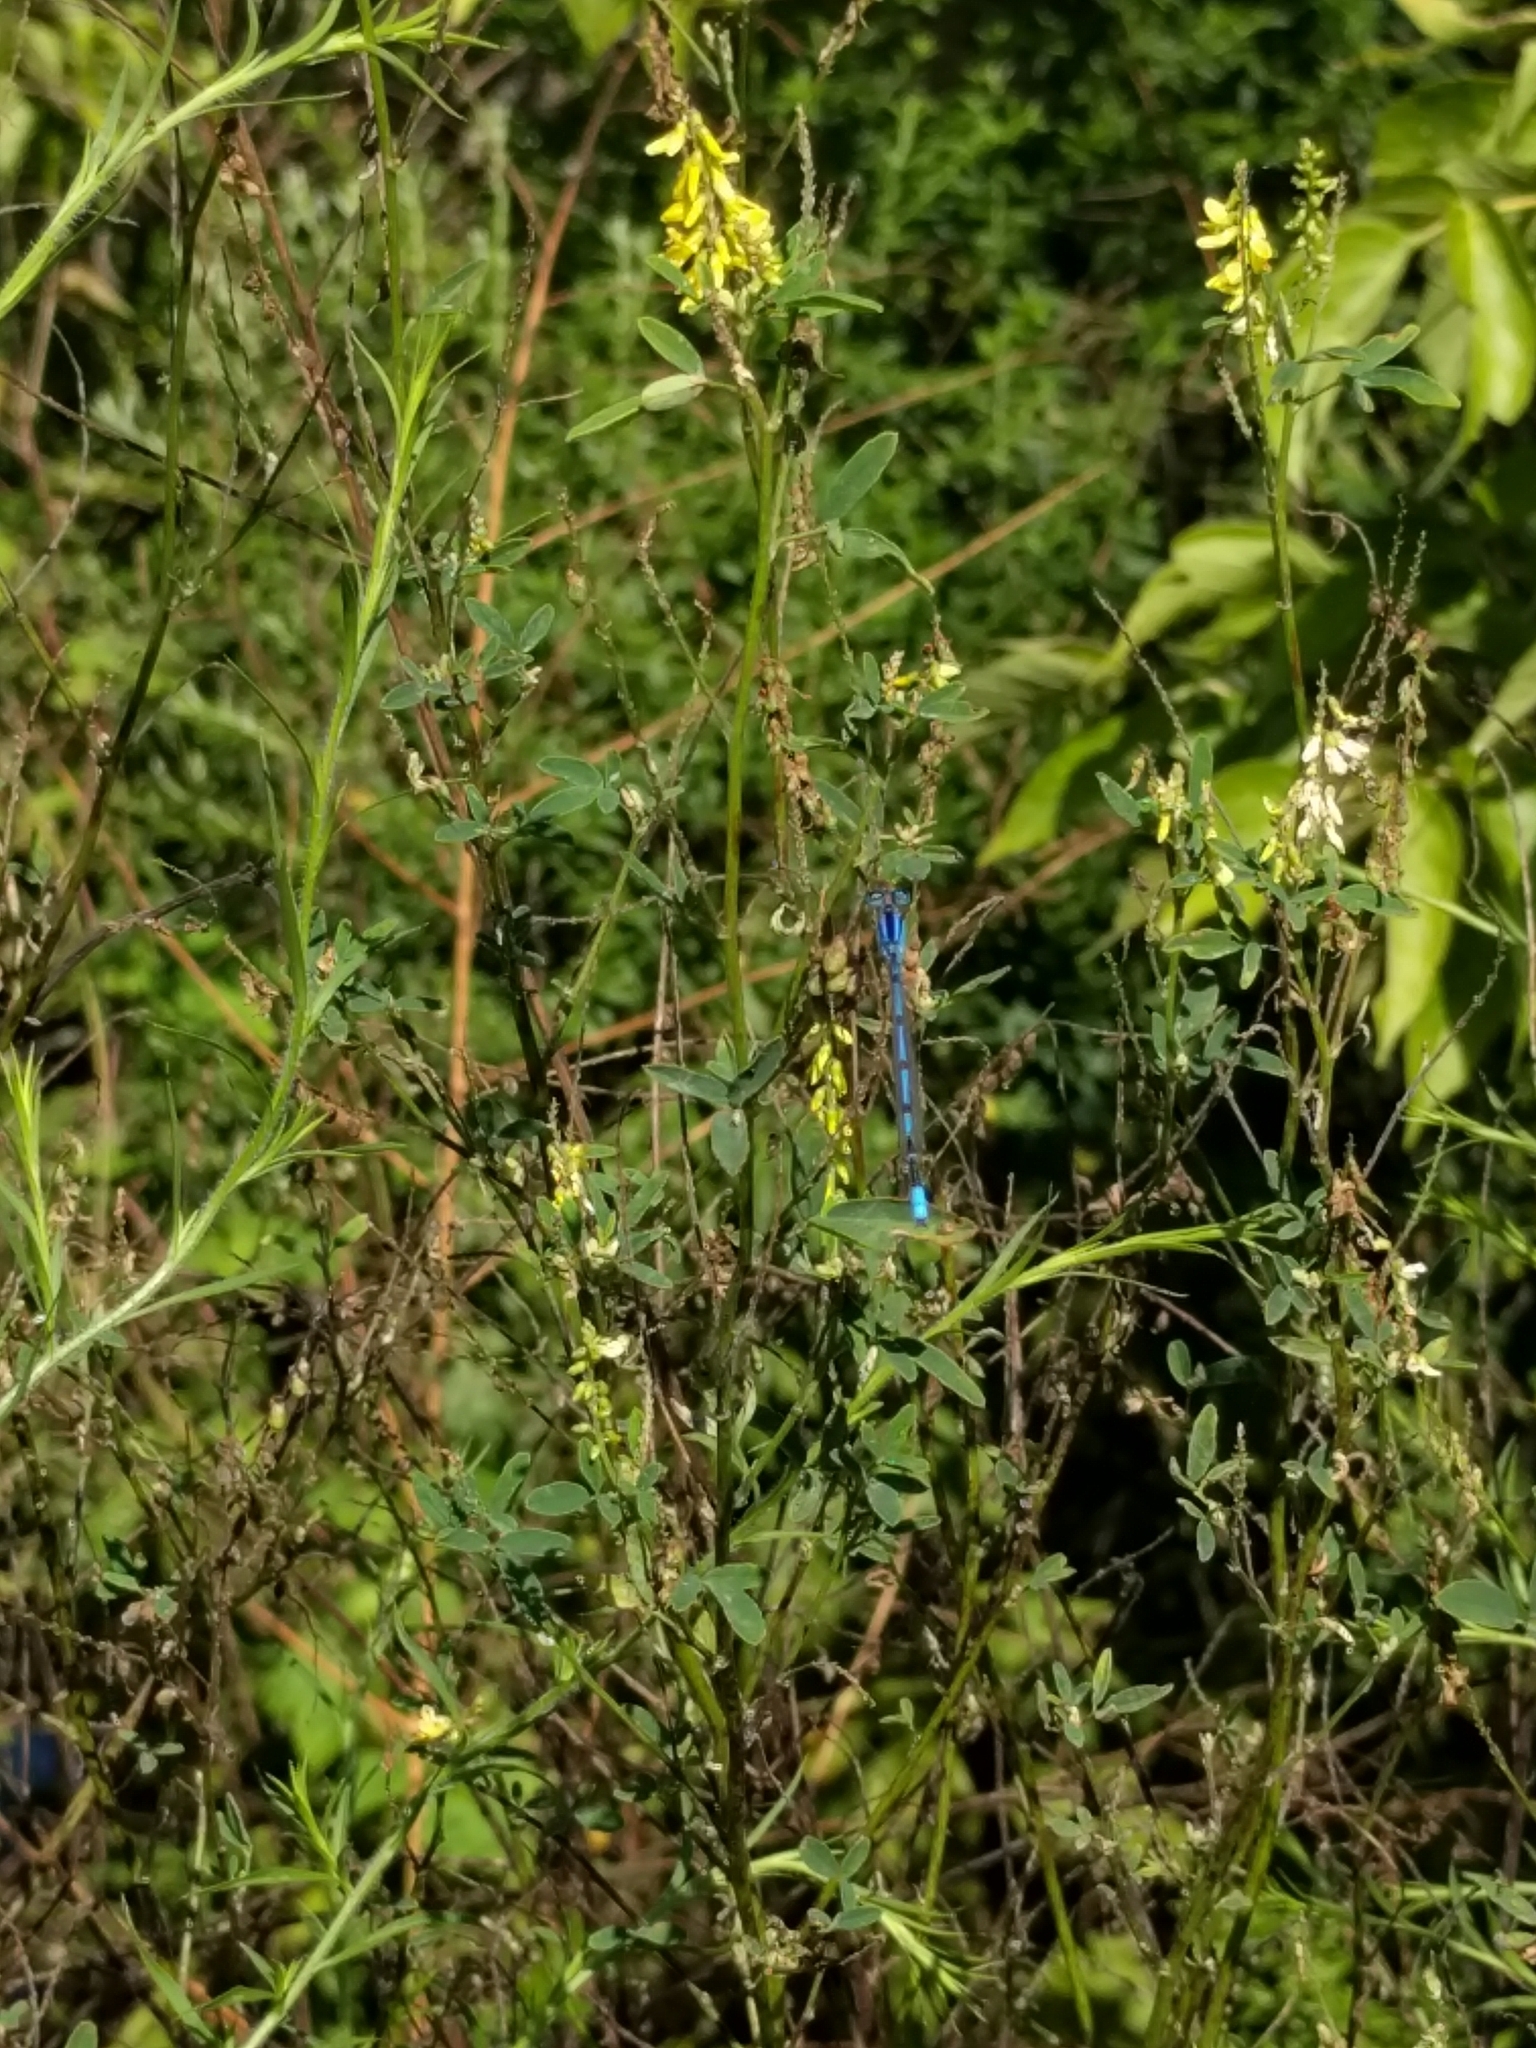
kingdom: Animalia
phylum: Arthropoda
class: Insecta
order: Odonata
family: Coenagrionidae
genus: Enallagma
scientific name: Enallagma civile
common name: Damselfly
